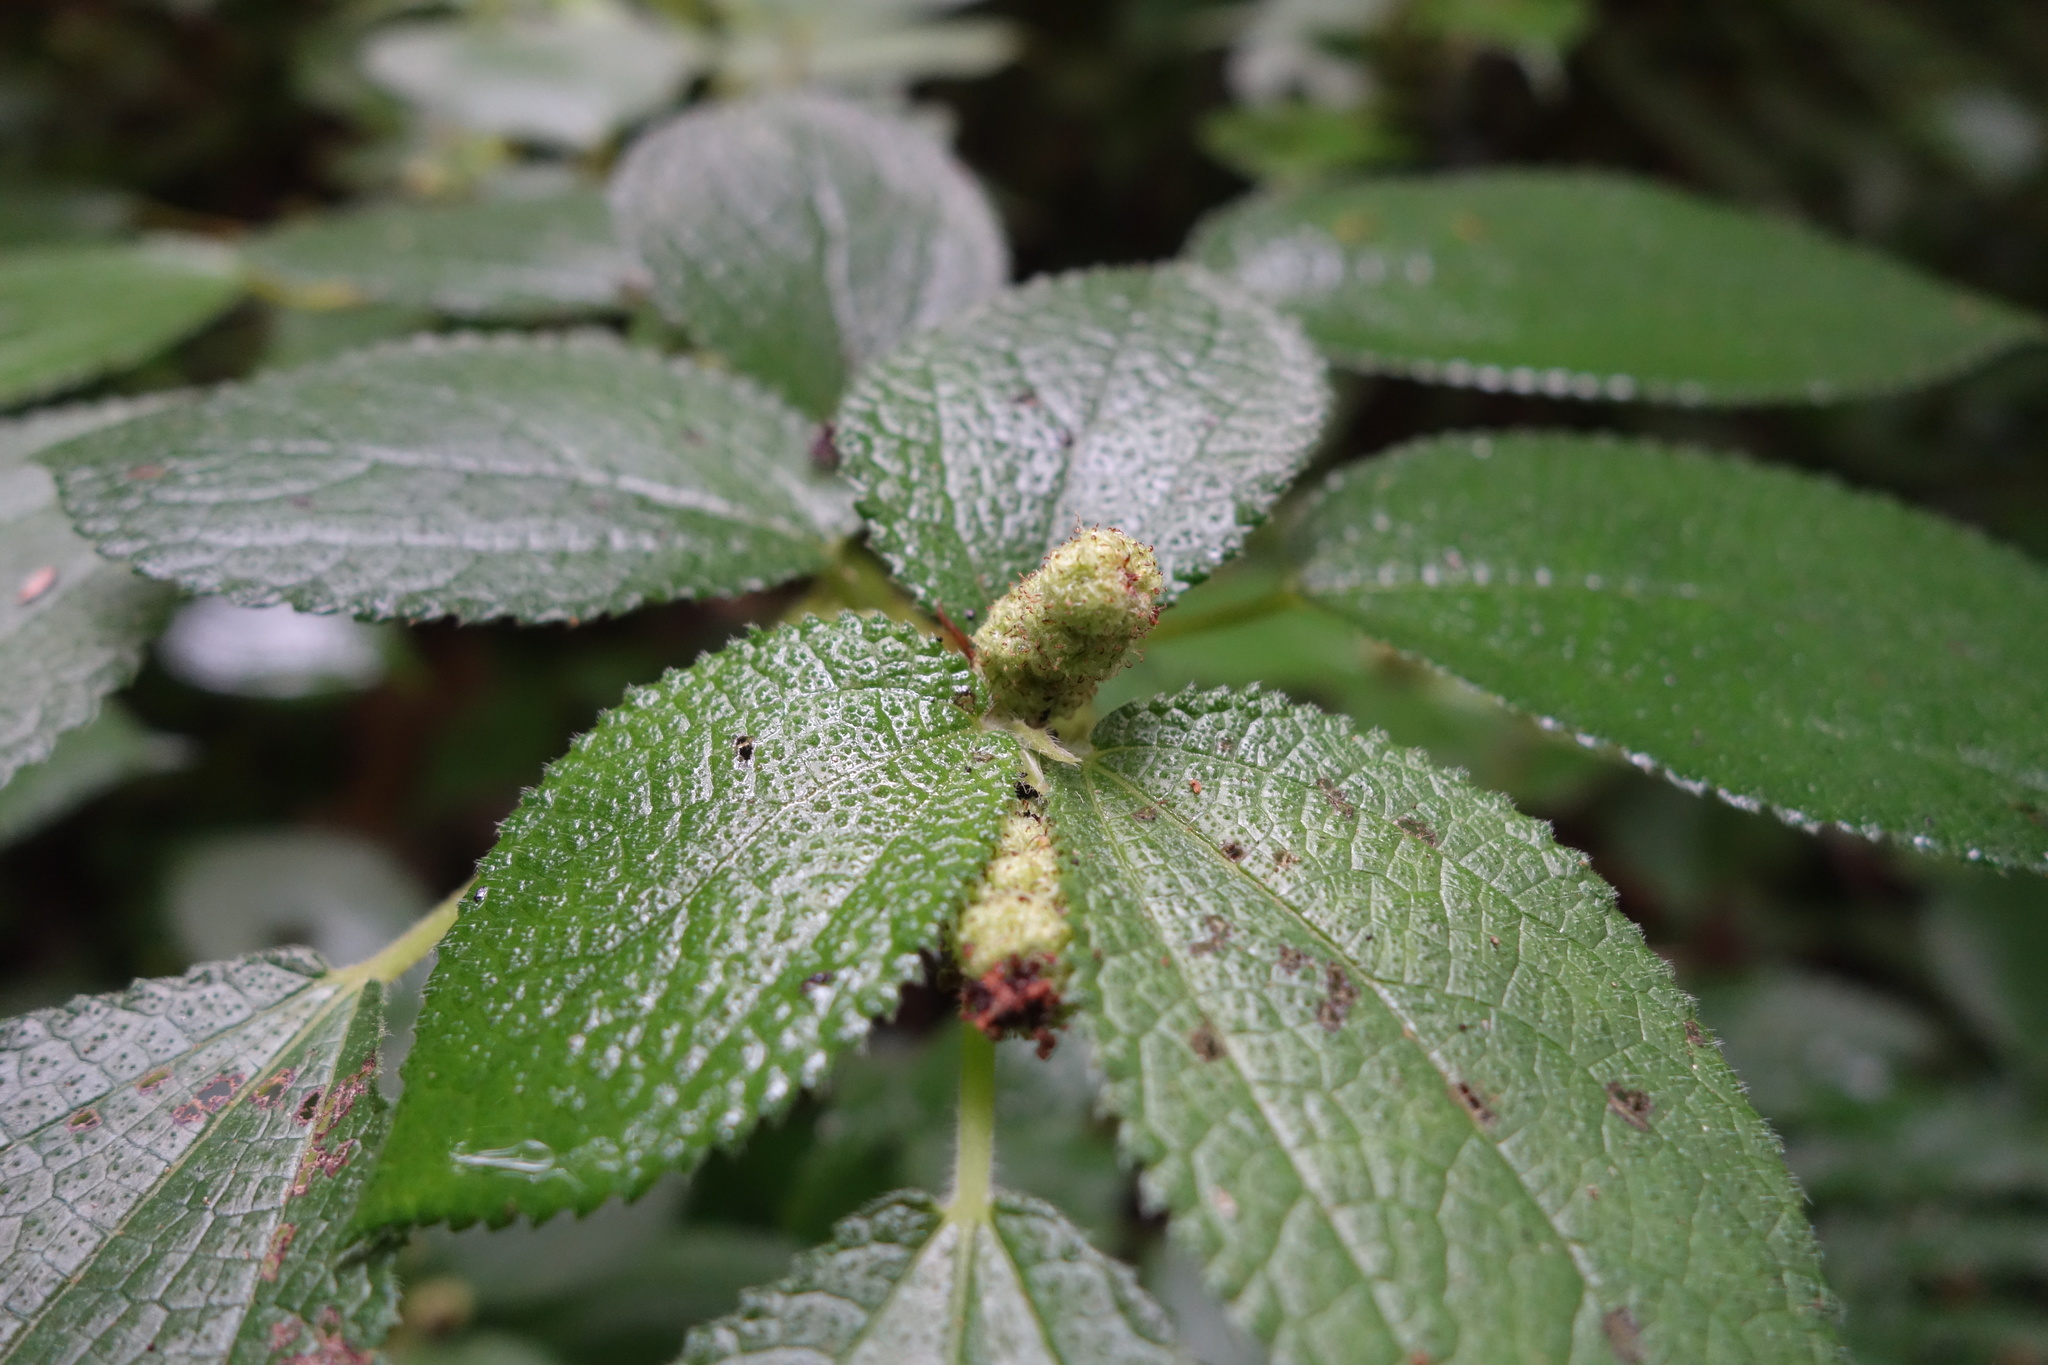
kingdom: Plantae
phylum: Tracheophyta
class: Magnoliopsida
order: Rosales
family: Urticaceae
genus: Boehmeria
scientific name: Boehmeria pilosiuscula
